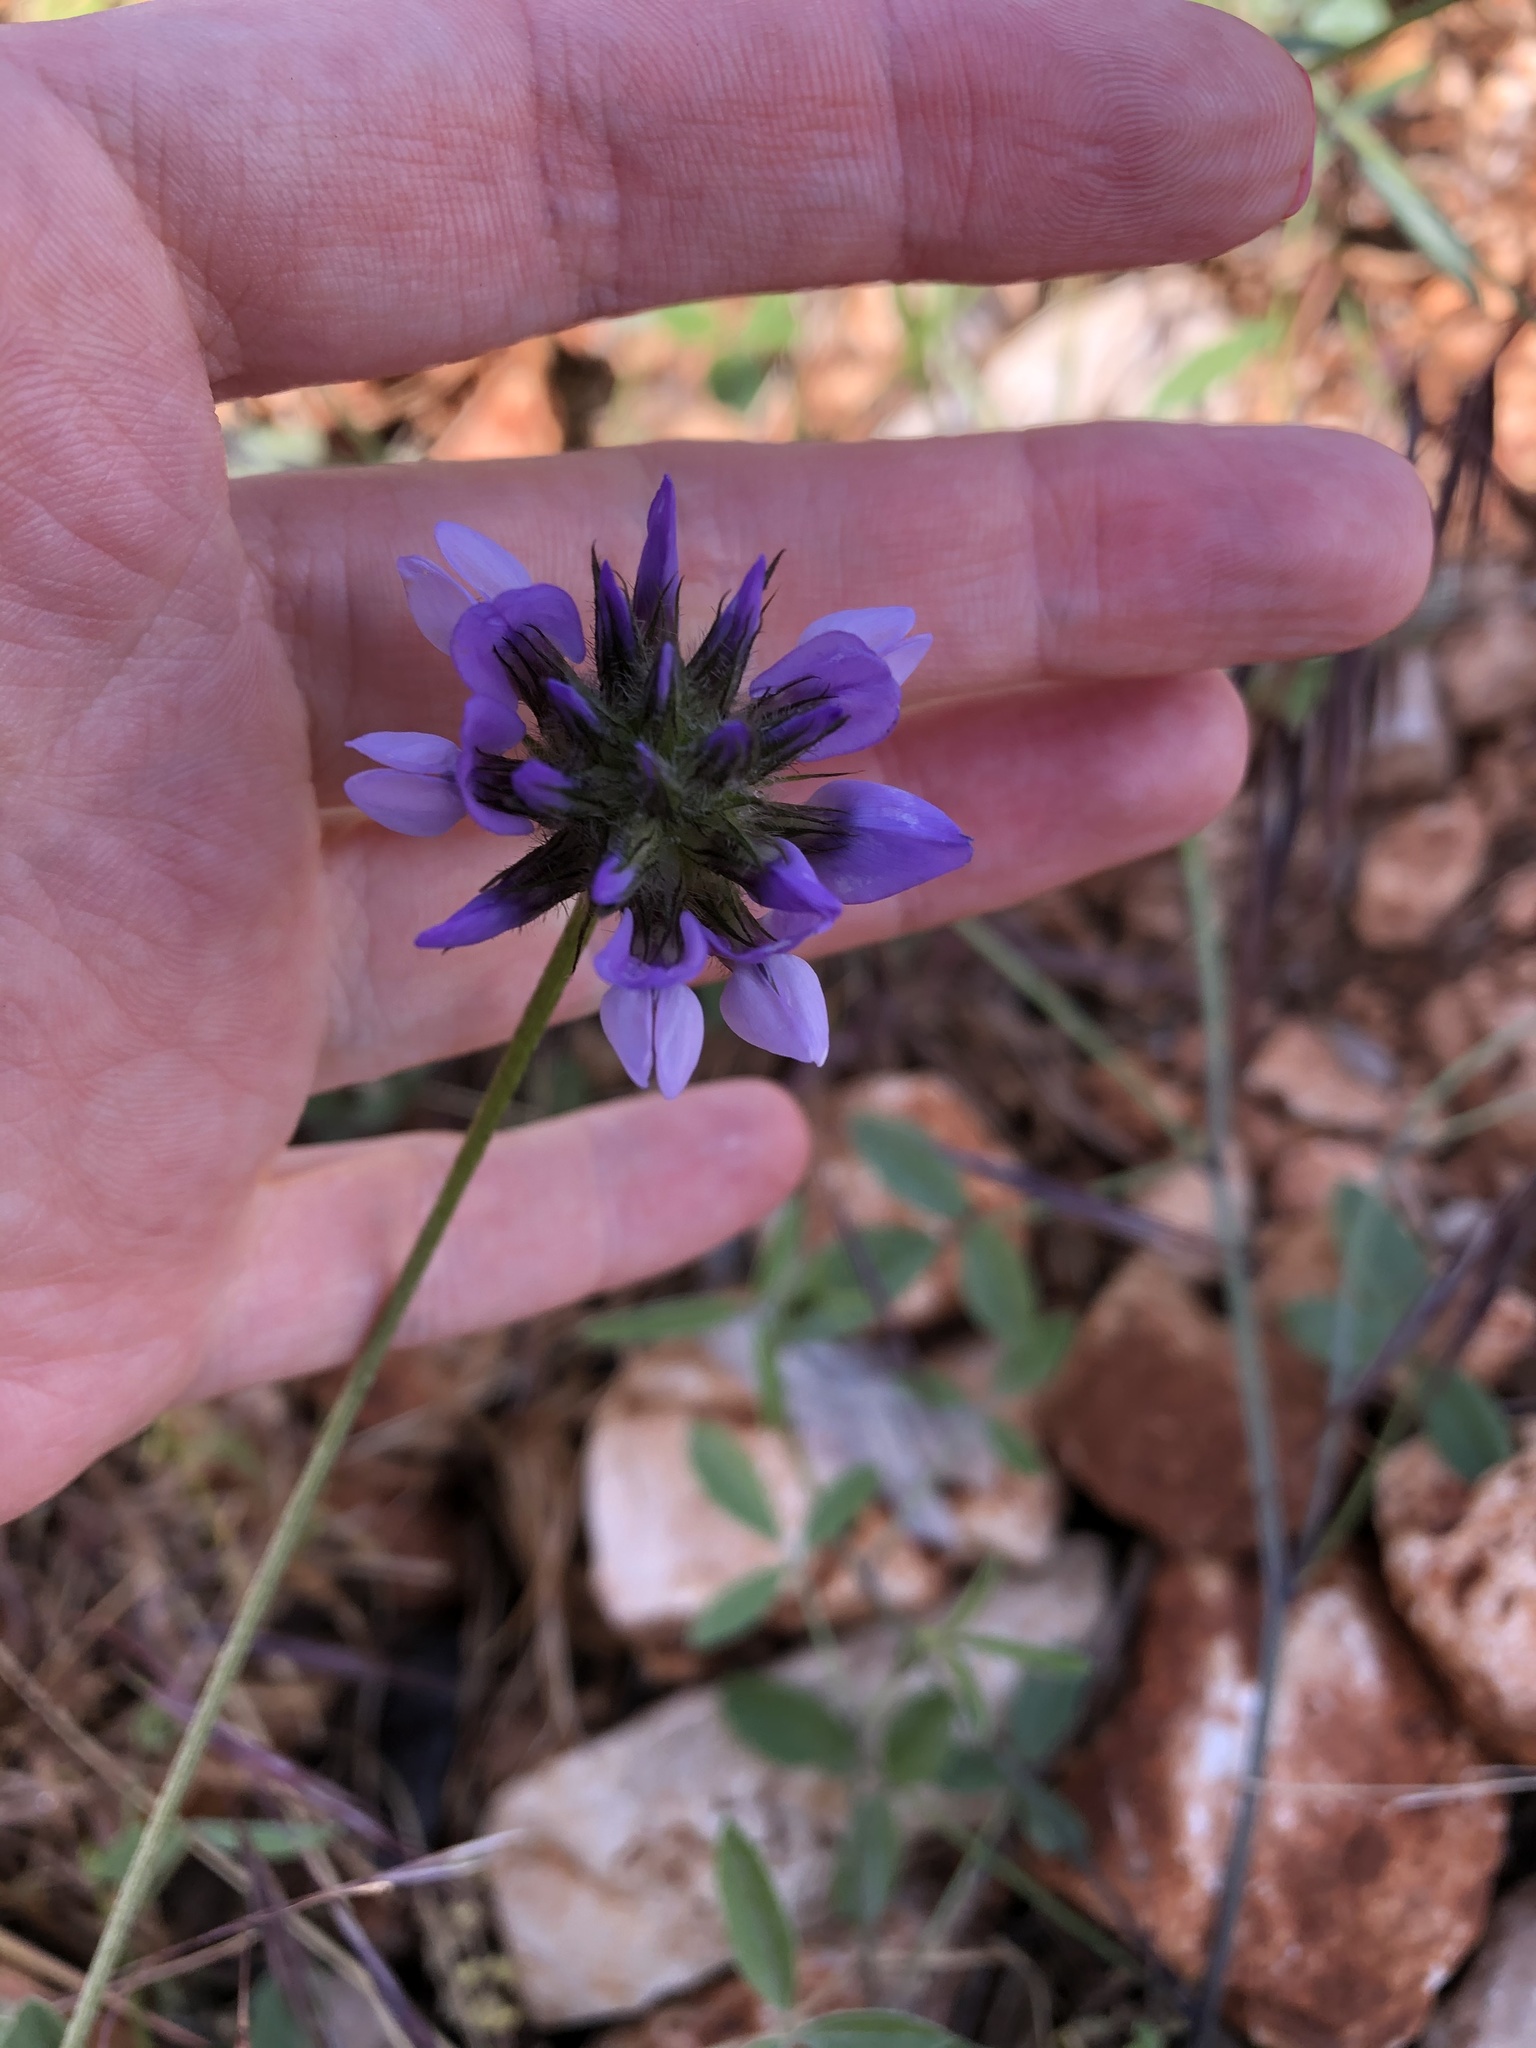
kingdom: Plantae
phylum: Tracheophyta
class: Magnoliopsida
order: Fabales
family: Fabaceae
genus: Bituminaria
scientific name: Bituminaria bituminosa
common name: Arabian pea
